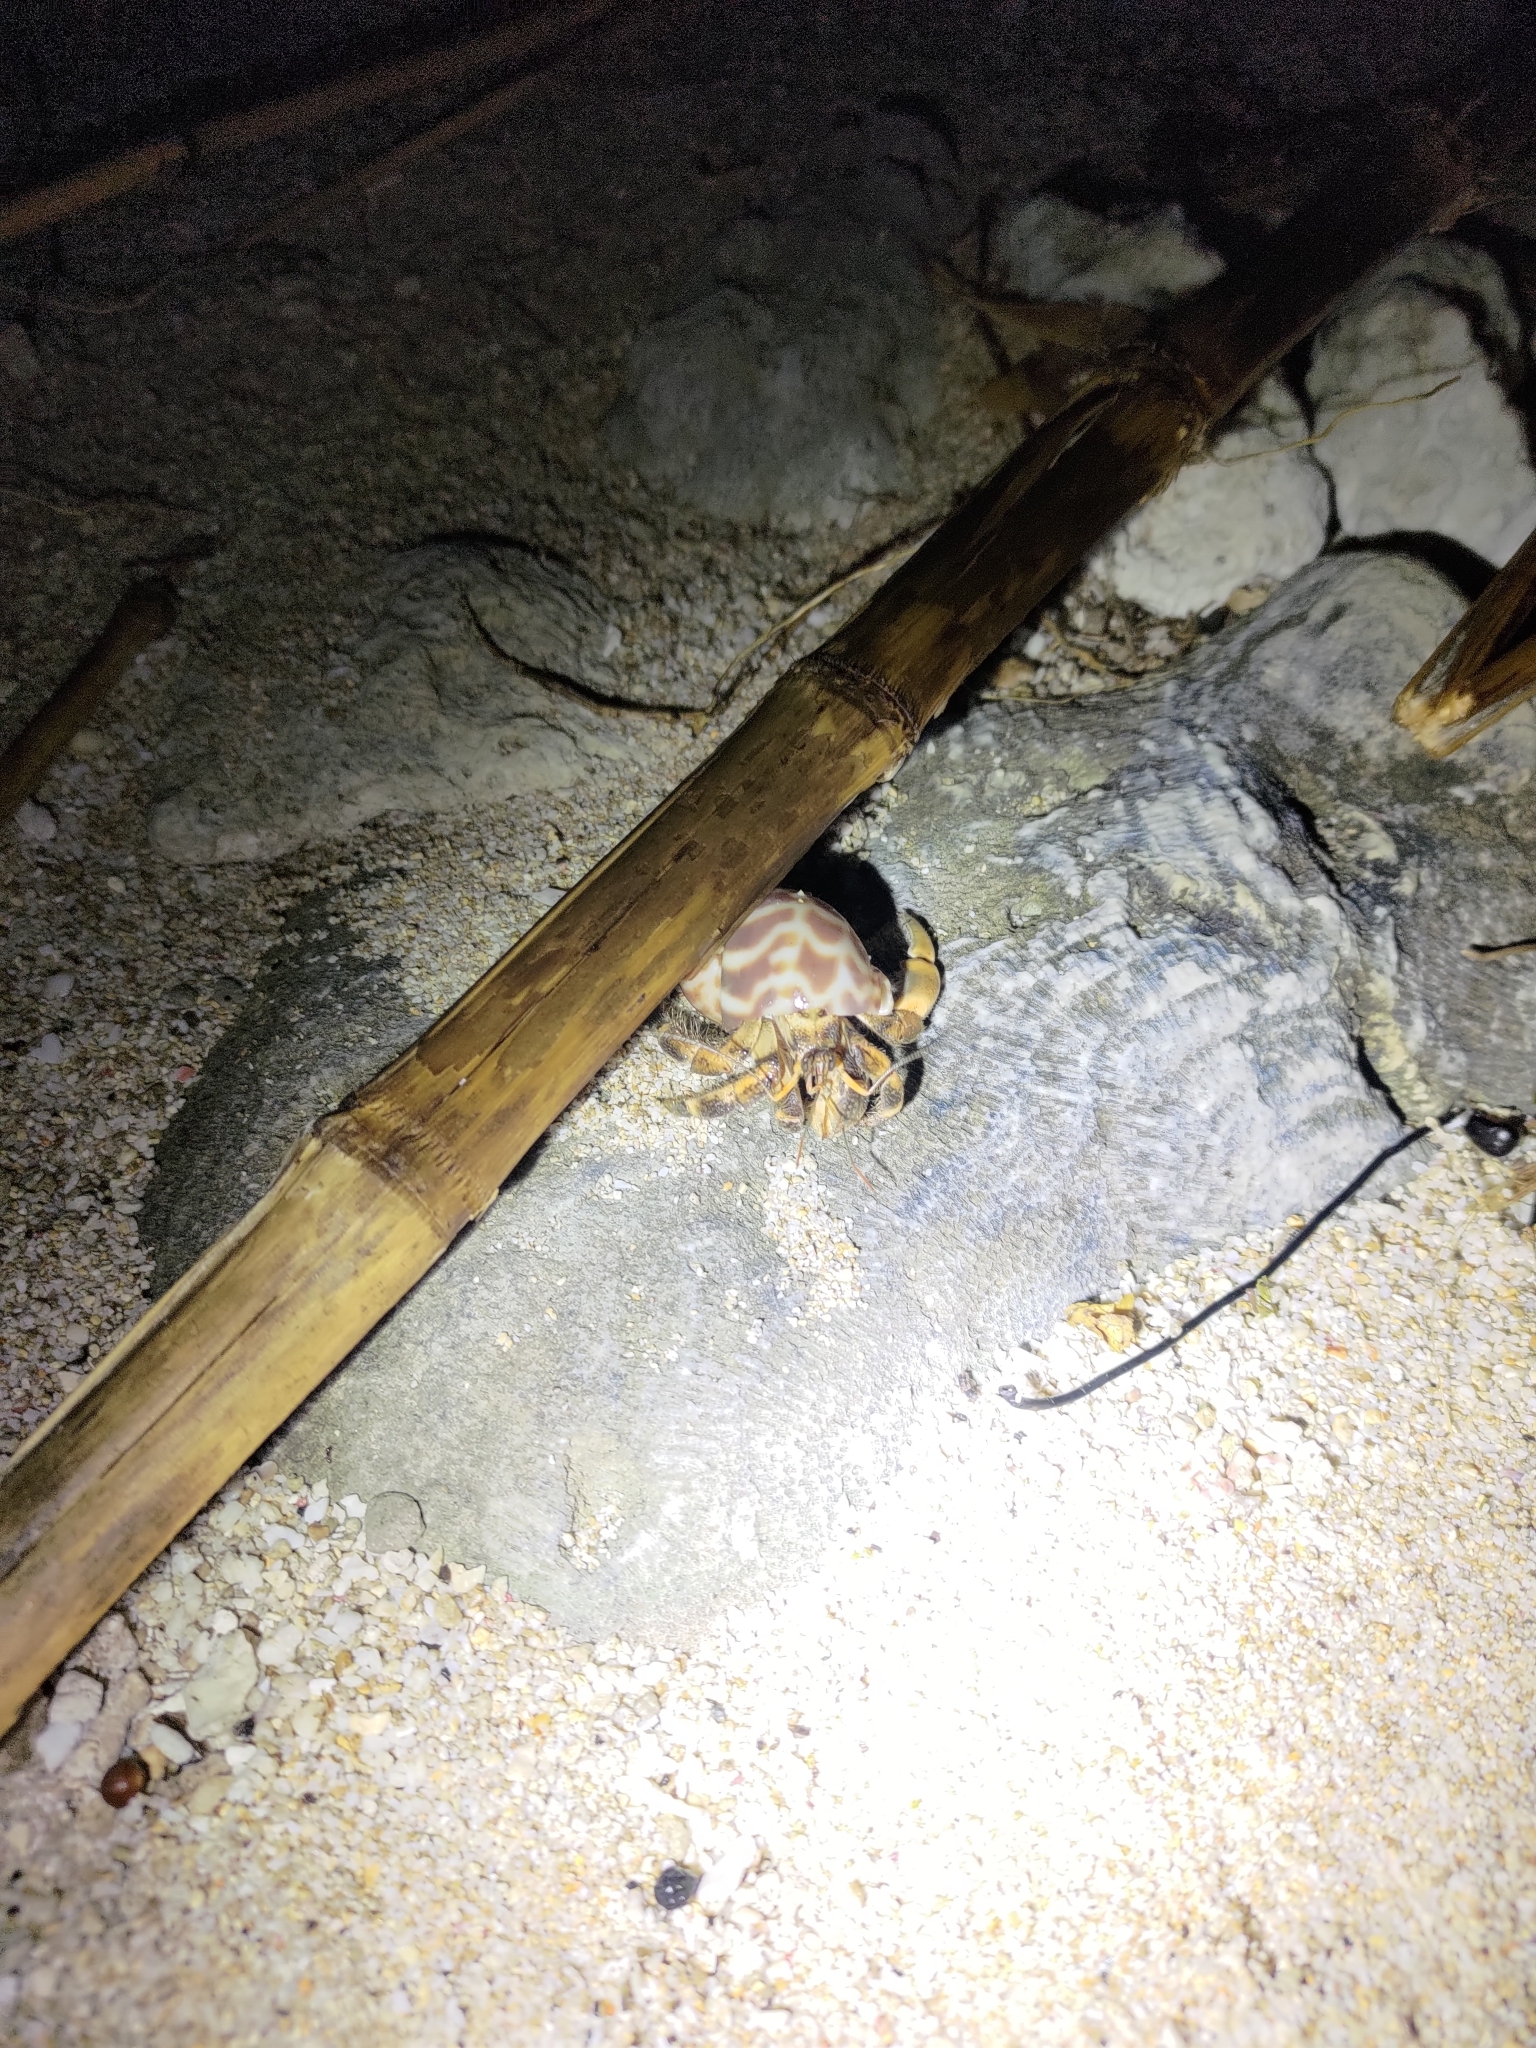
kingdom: Animalia
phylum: Arthropoda
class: Malacostraca
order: Decapoda
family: Coenobitidae
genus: Coenobita
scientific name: Coenobita rugosus
